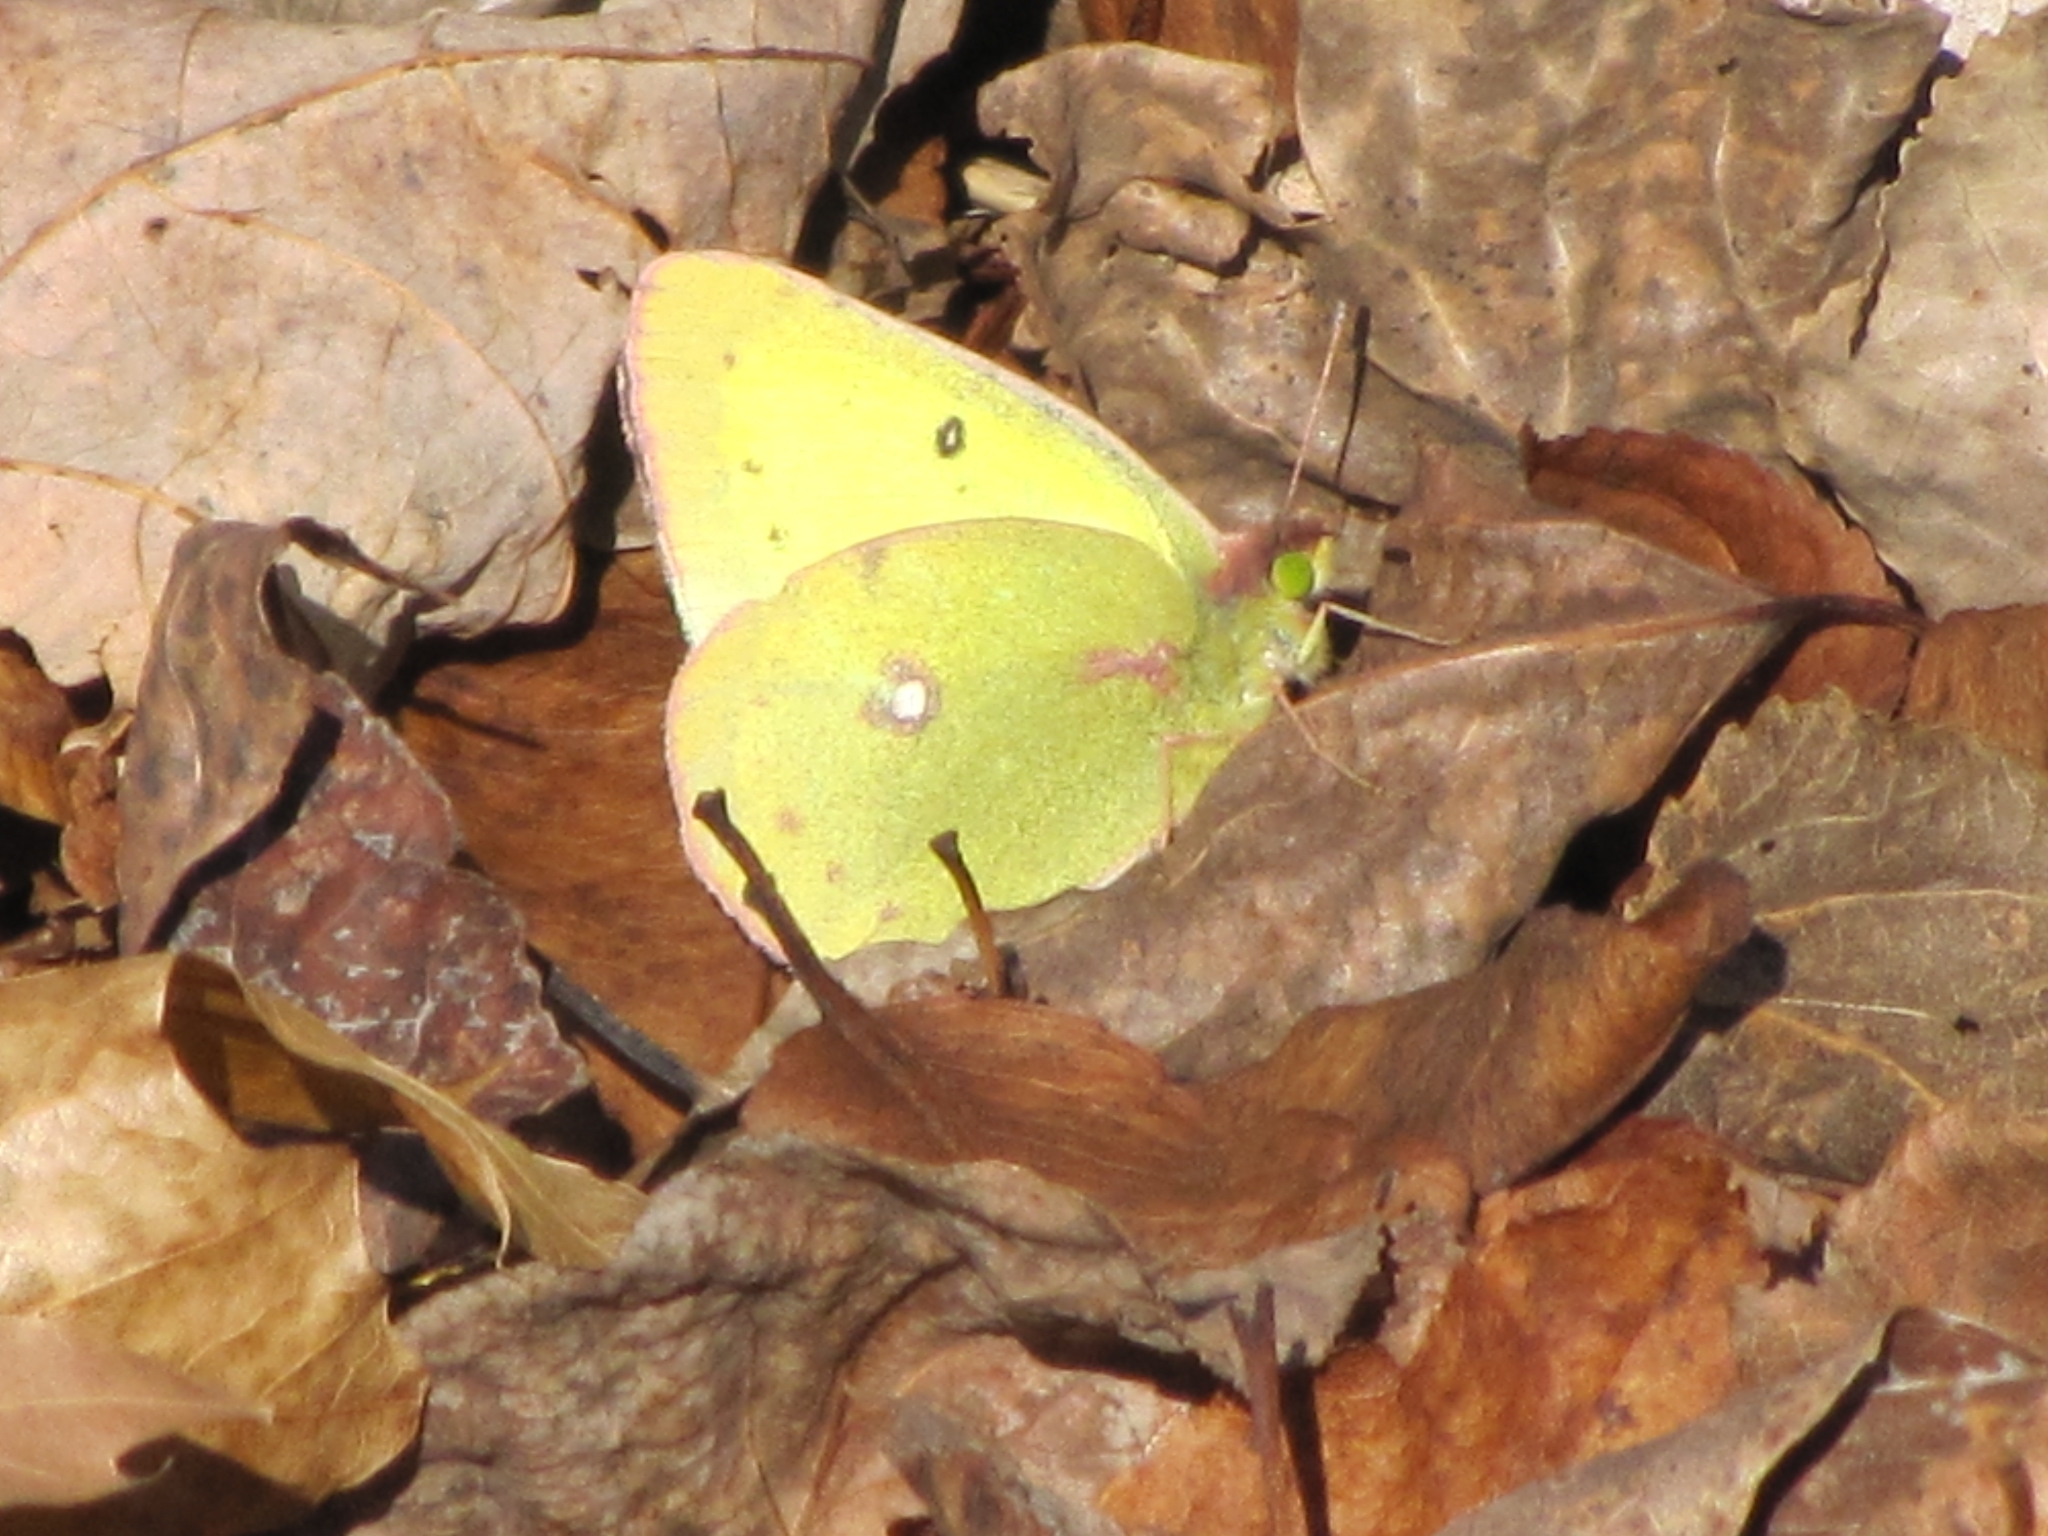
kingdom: Animalia
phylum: Arthropoda
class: Insecta
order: Lepidoptera
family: Pieridae
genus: Colias
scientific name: Colias philodice
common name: Clouded sulphur
